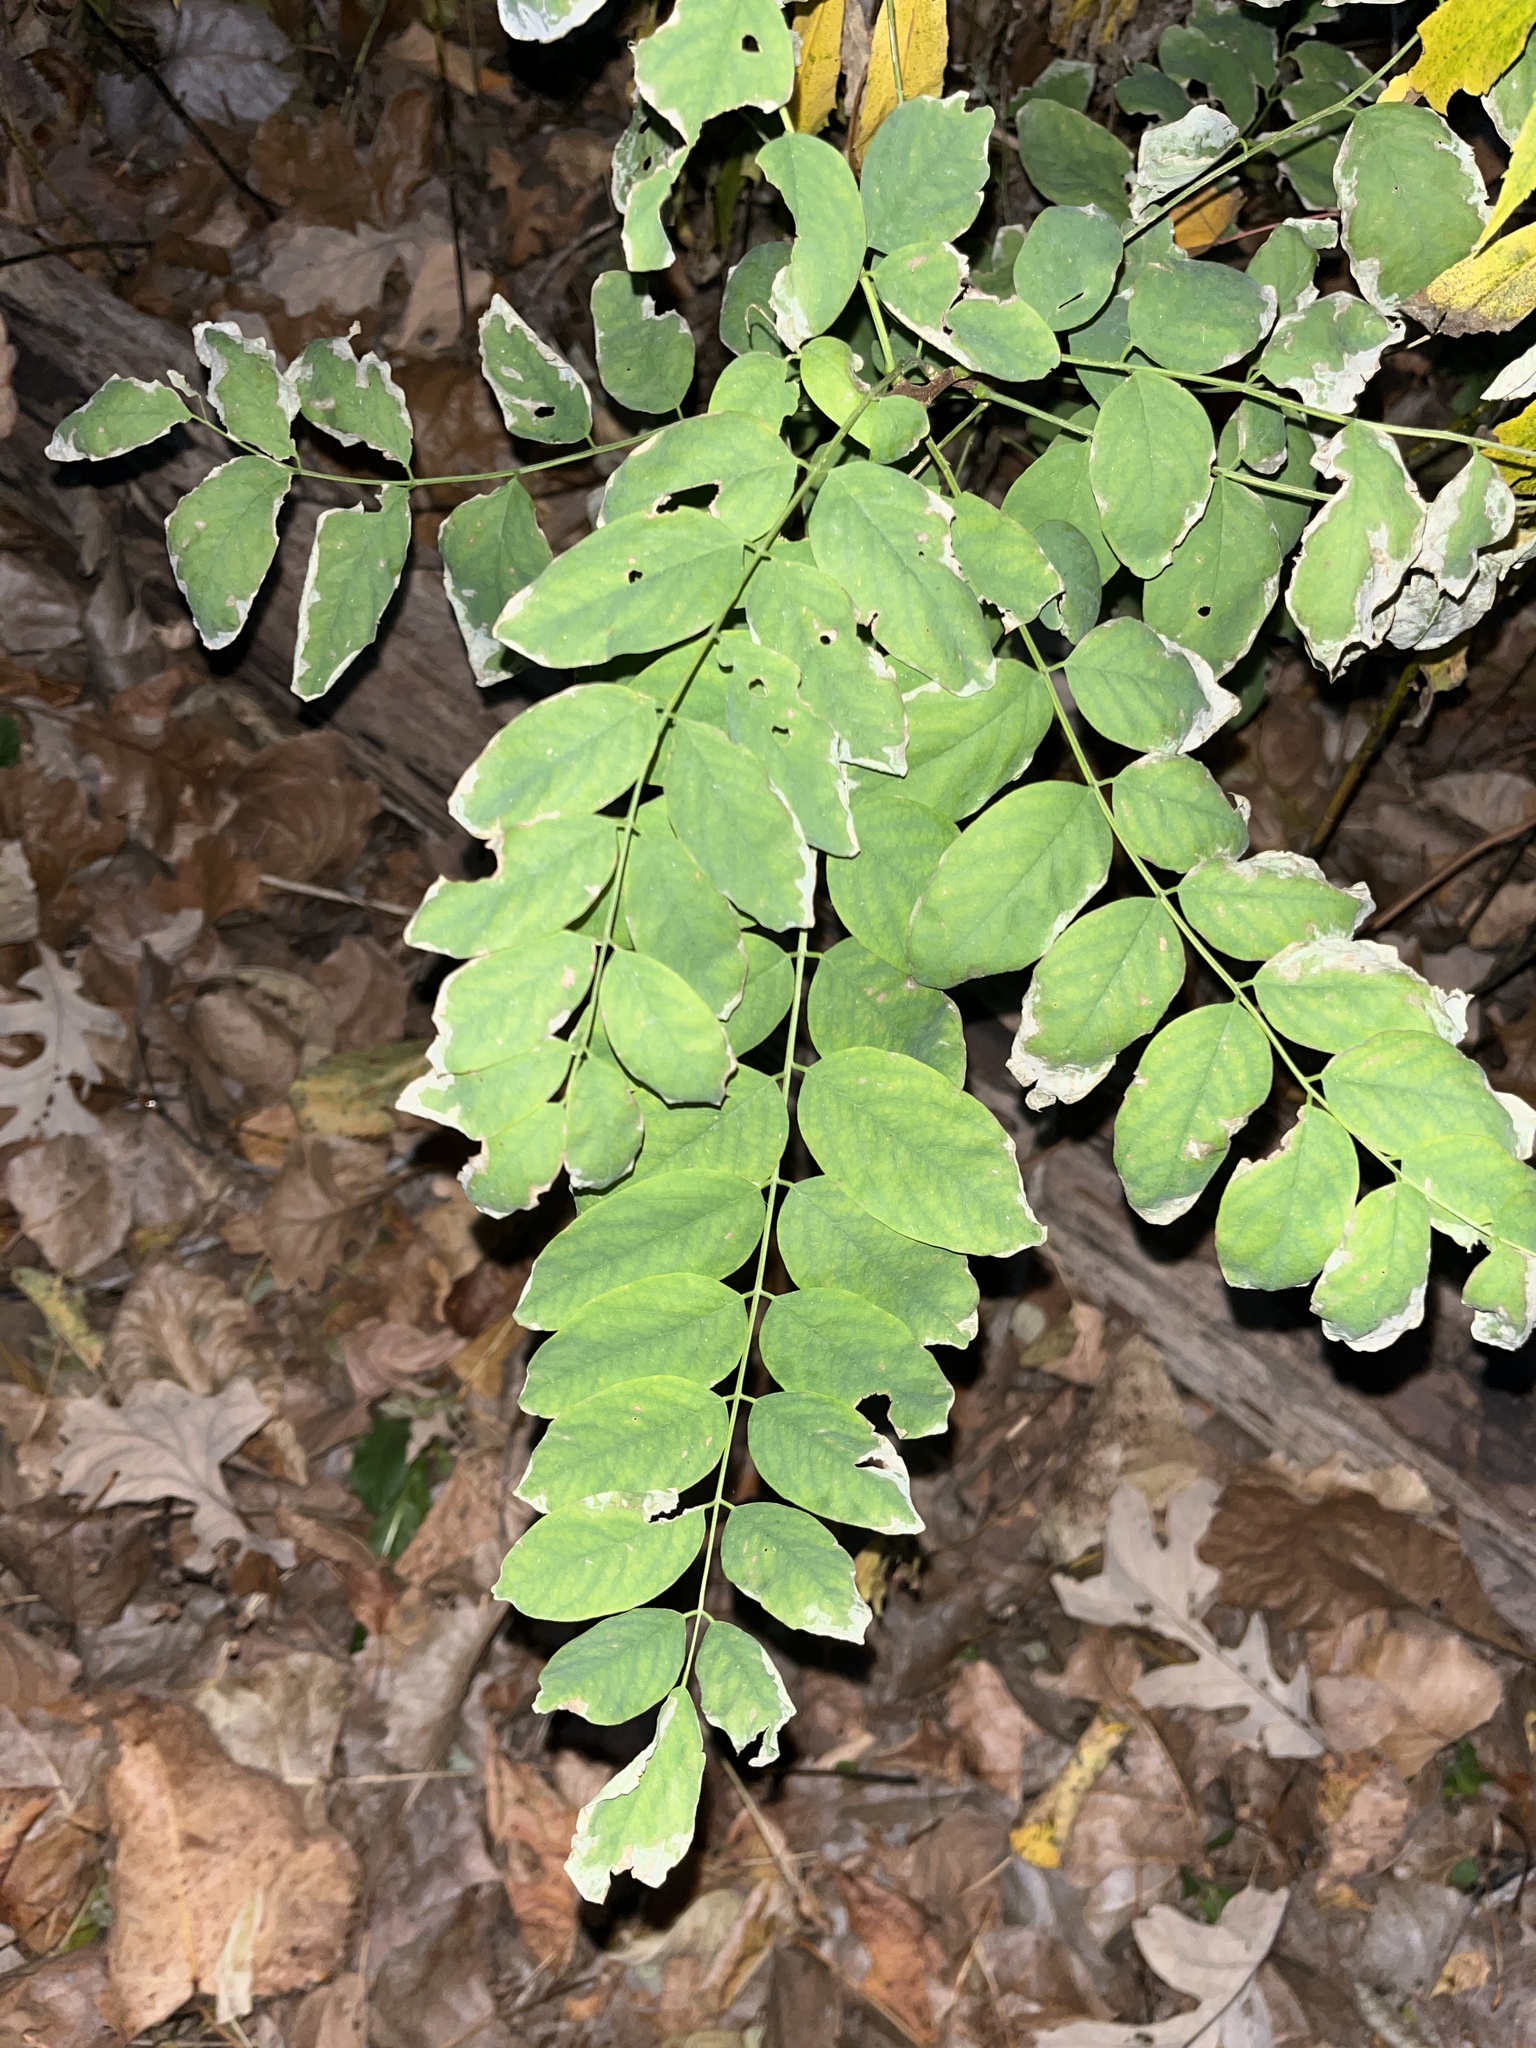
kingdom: Plantae
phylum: Tracheophyta
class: Magnoliopsida
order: Fabales
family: Fabaceae
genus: Robinia
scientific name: Robinia pseudoacacia
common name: Black locust
